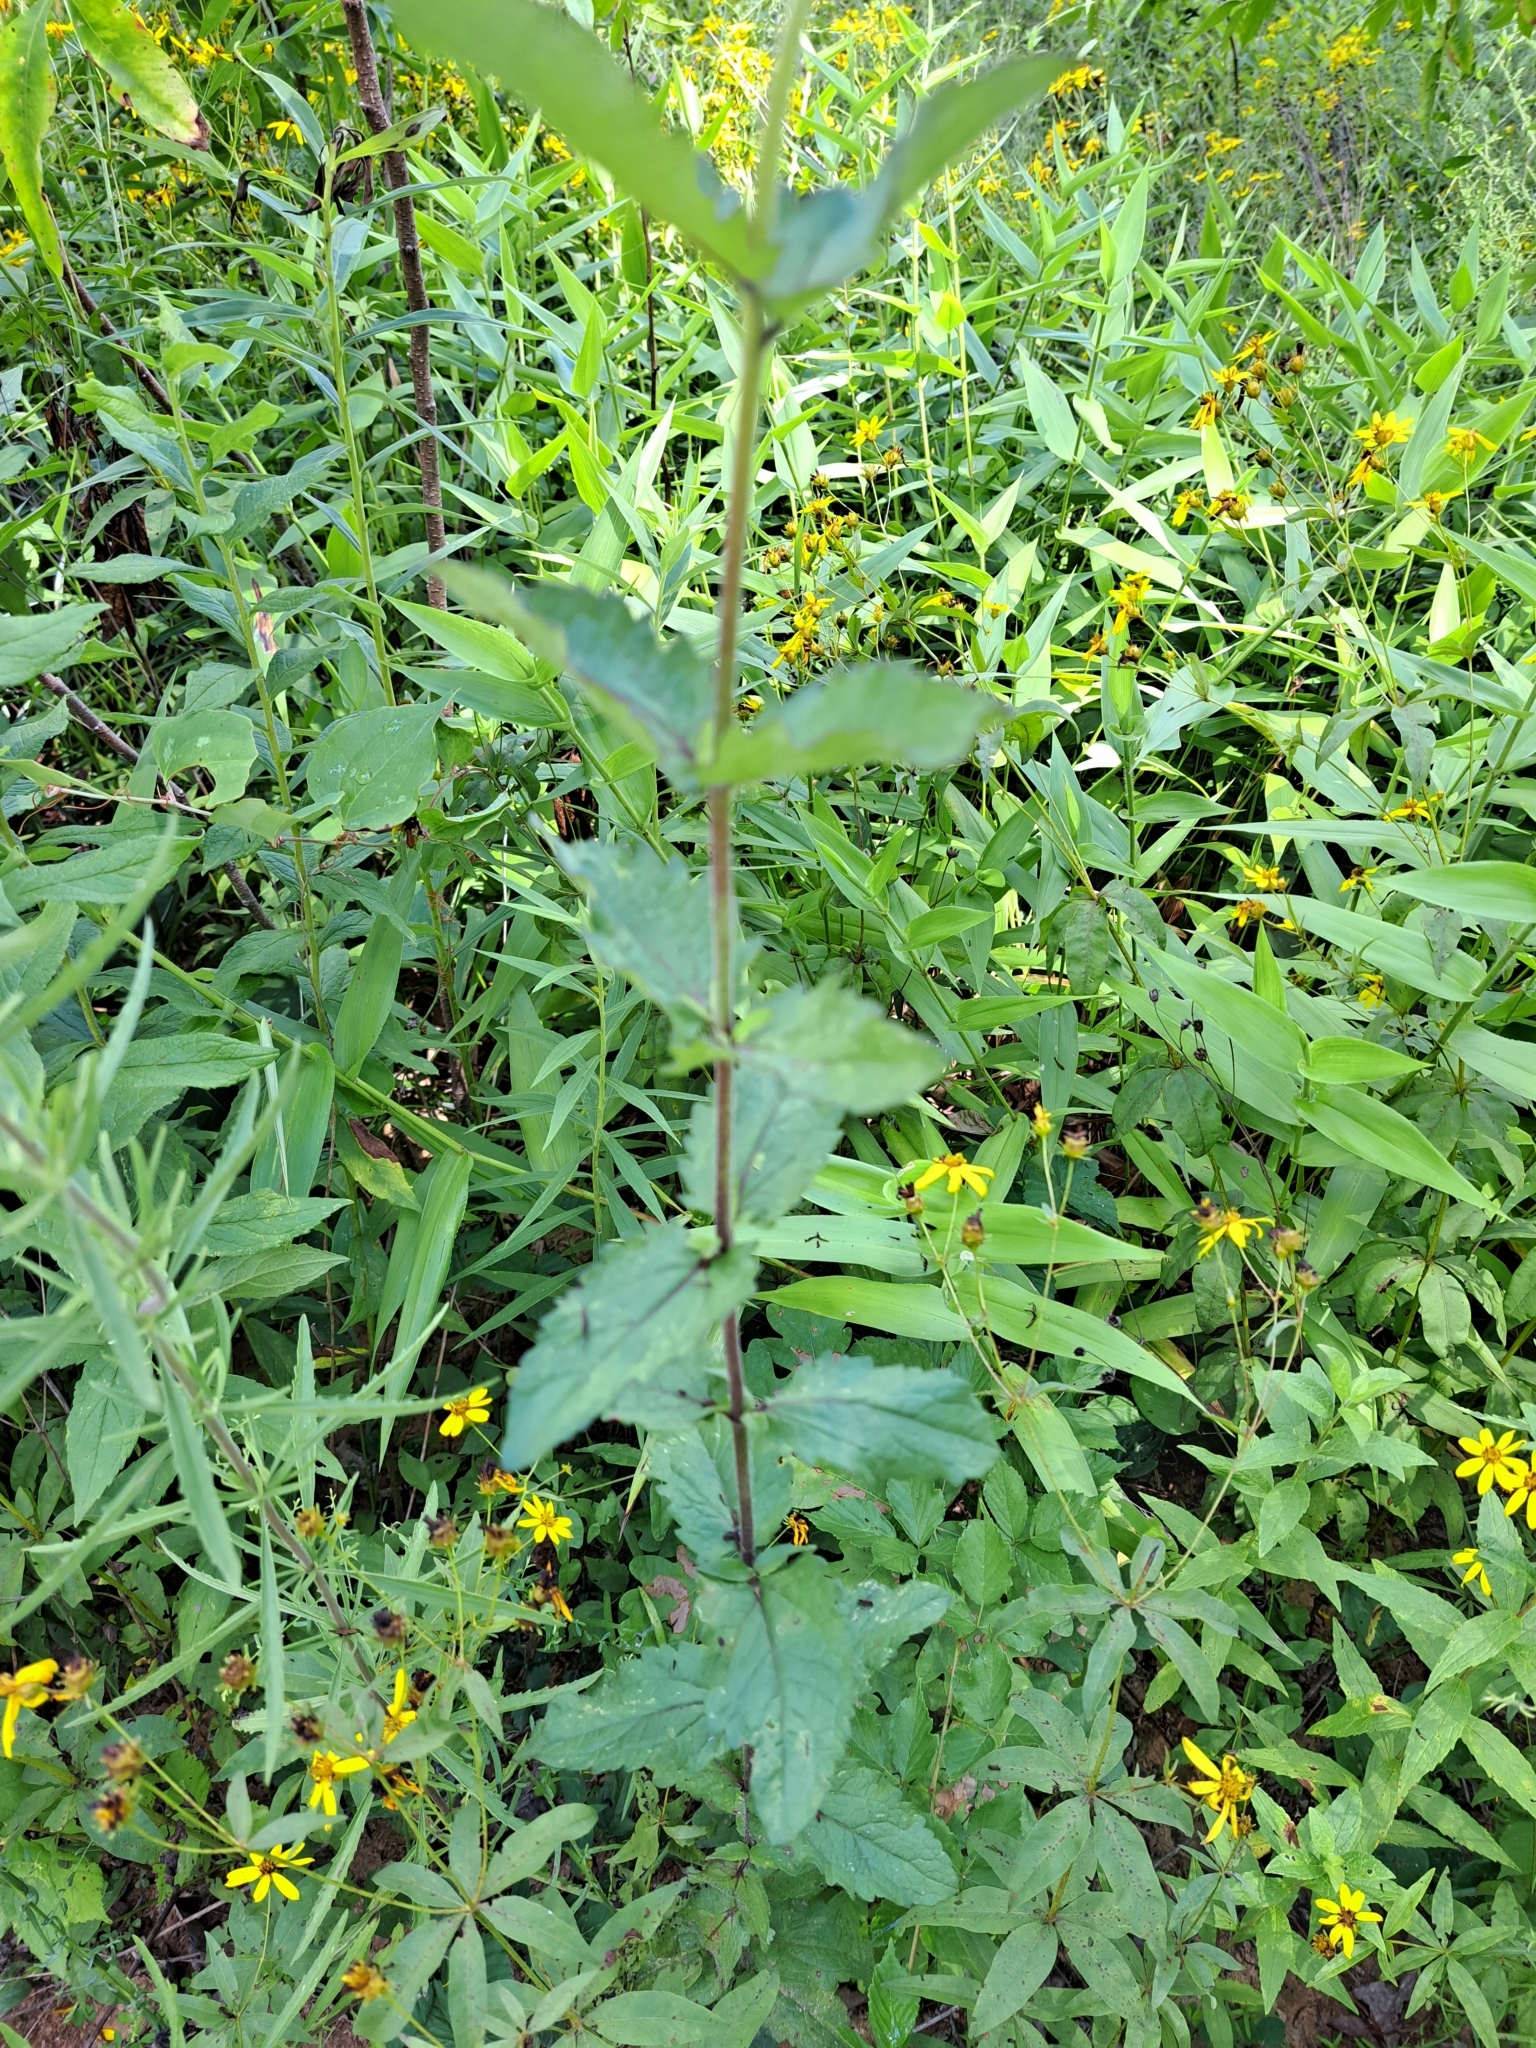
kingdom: Plantae
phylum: Tracheophyta
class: Magnoliopsida
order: Asterales
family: Asteraceae
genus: Eupatorium
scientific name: Eupatorium pilosum
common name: Rough boneset
